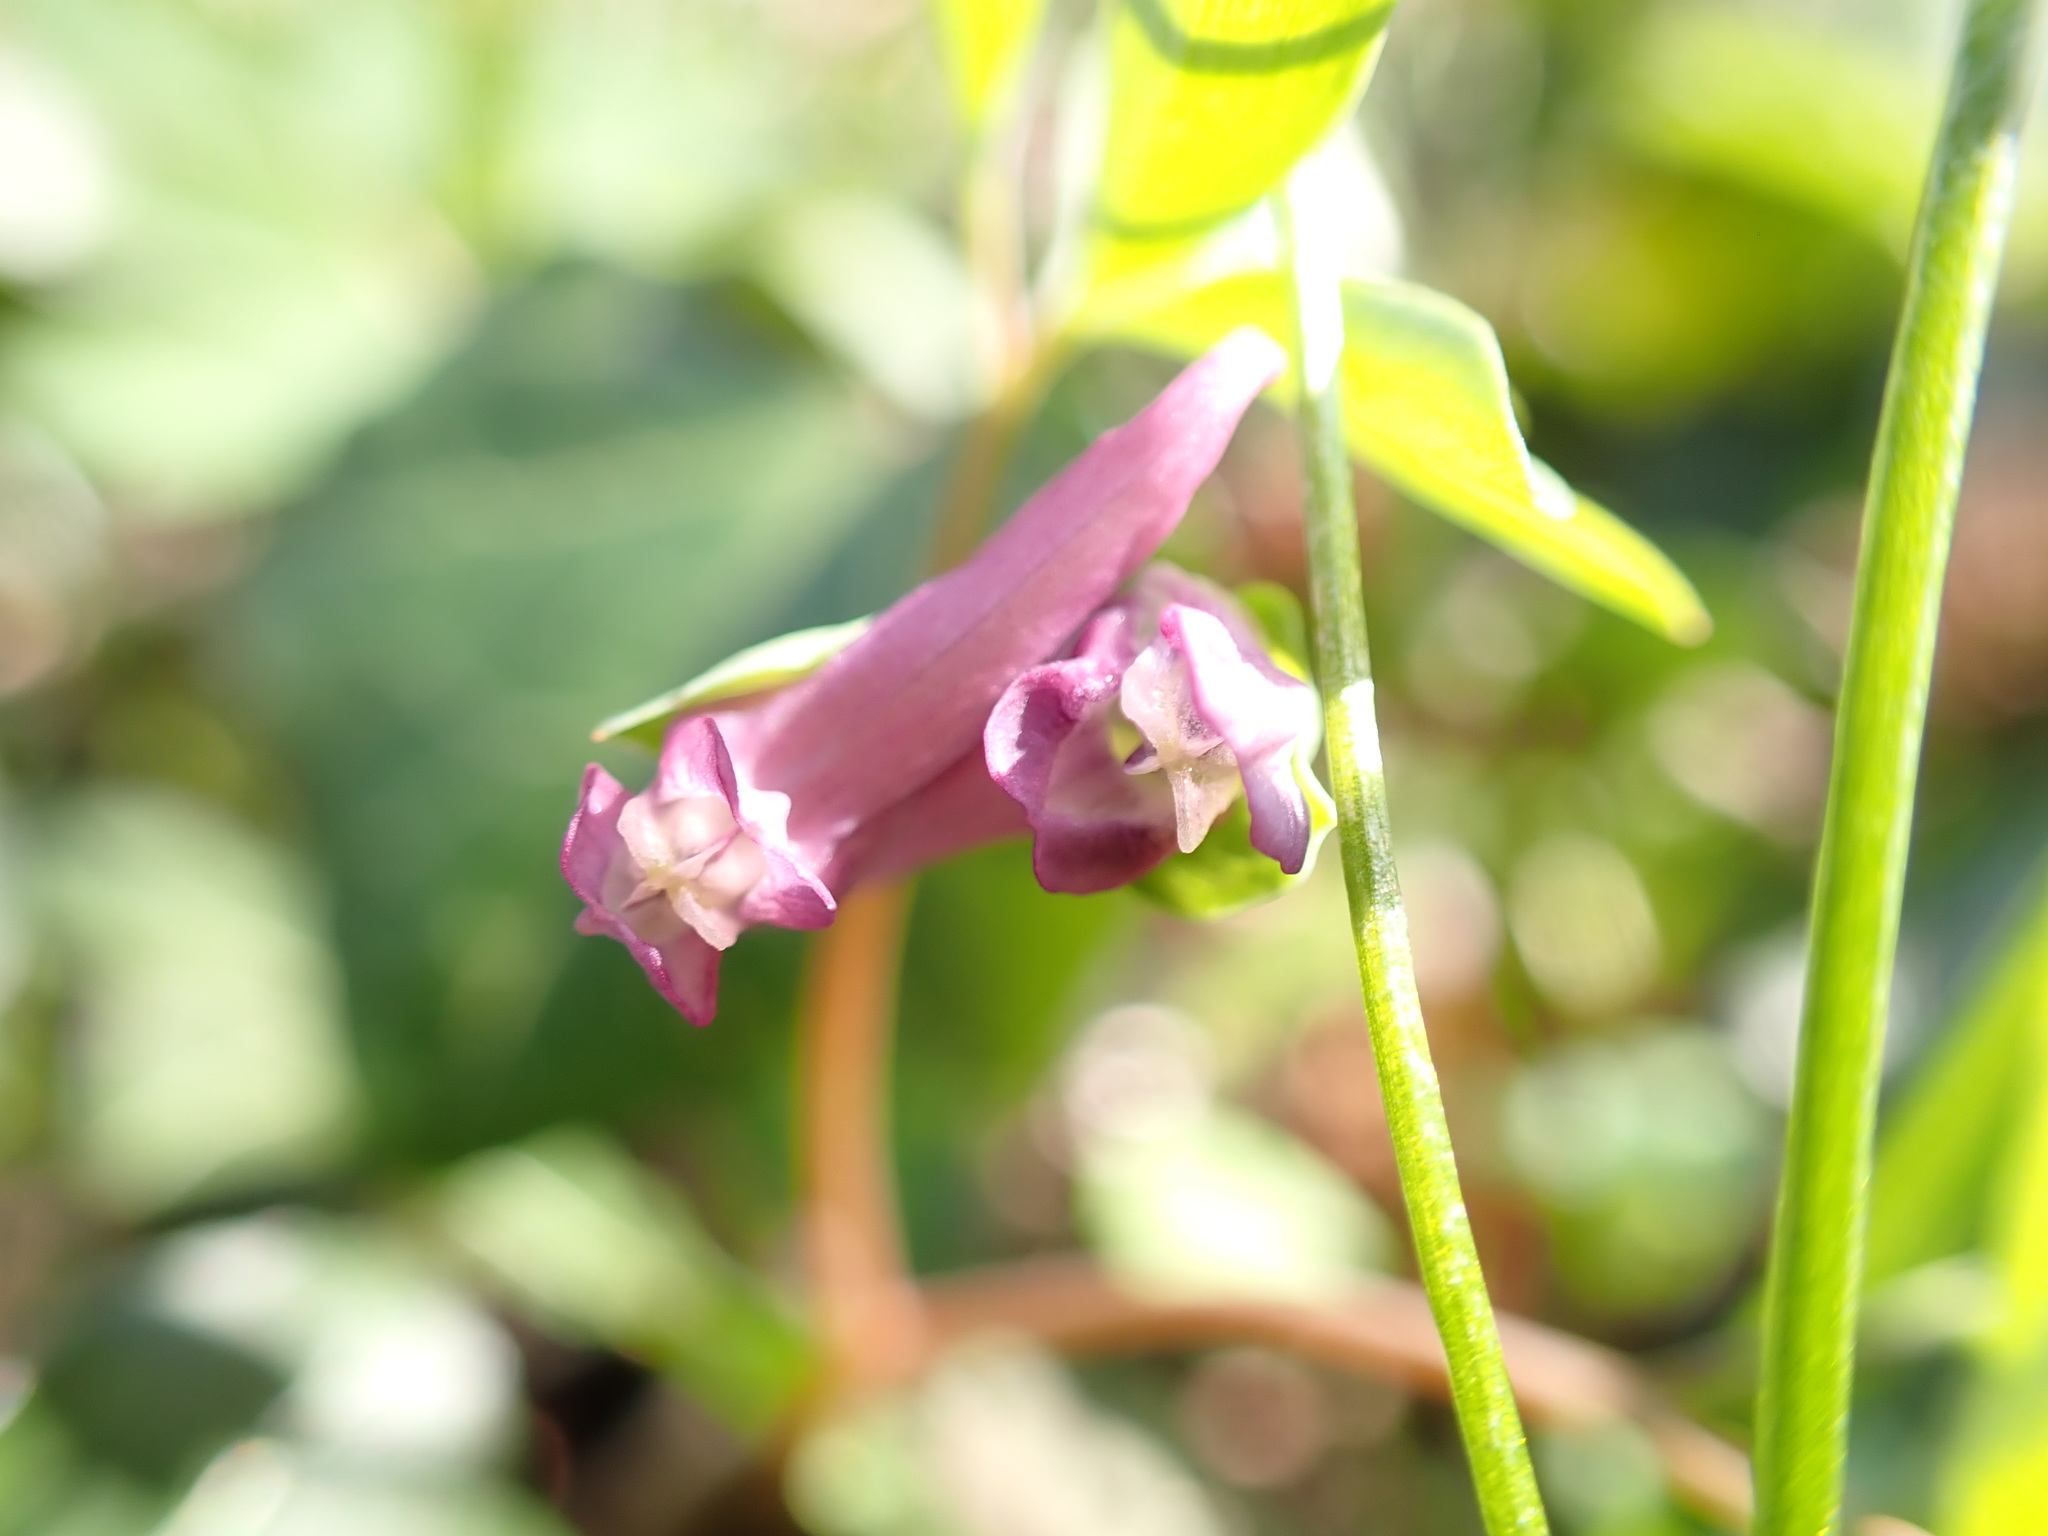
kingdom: Plantae
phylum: Tracheophyta
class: Magnoliopsida
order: Ranunculales
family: Papaveraceae
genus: Corydalis
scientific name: Corydalis intermedia
